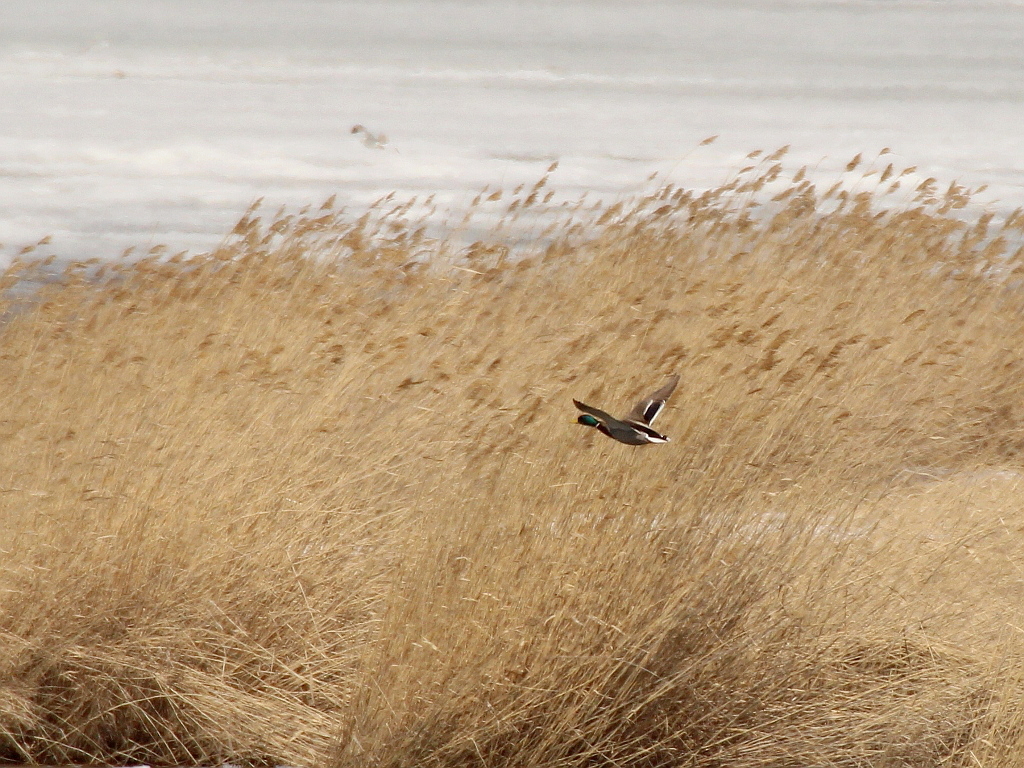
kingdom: Animalia
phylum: Chordata
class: Aves
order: Anseriformes
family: Anatidae
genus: Anas
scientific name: Anas platyrhynchos
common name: Mallard
